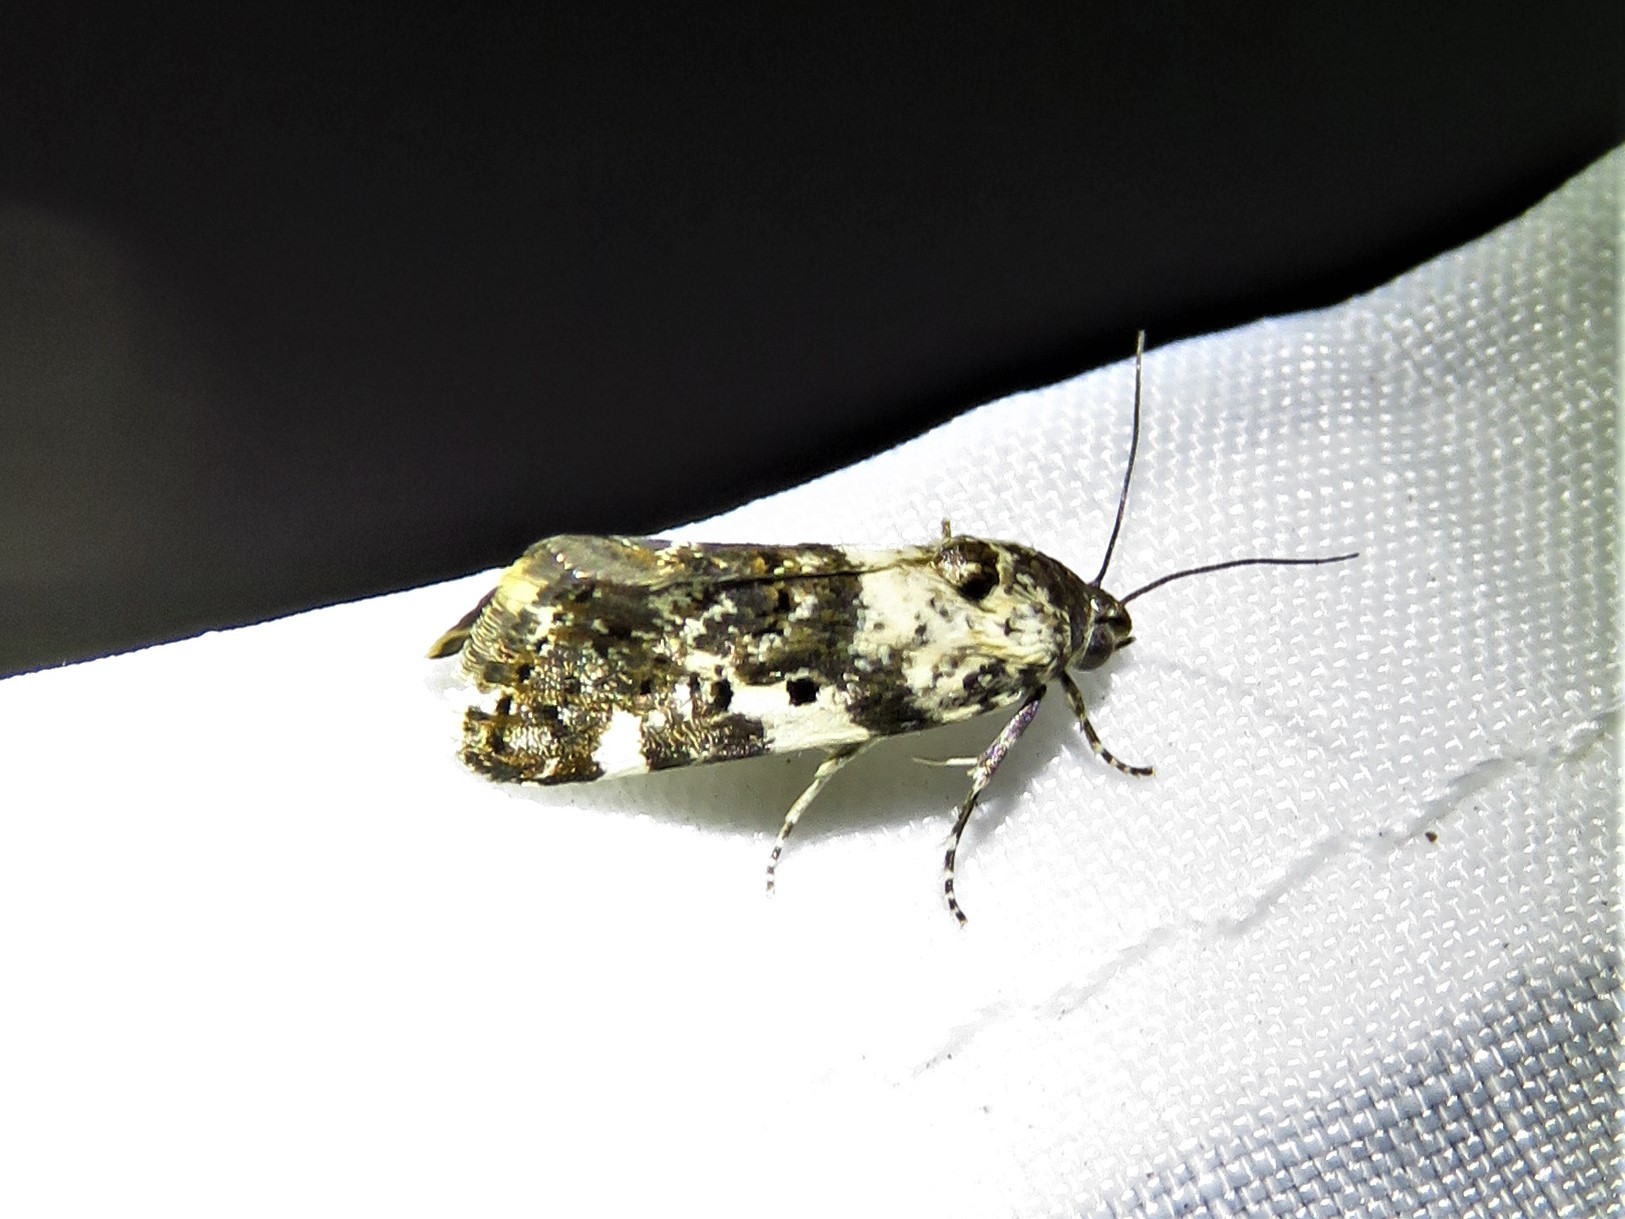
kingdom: Animalia
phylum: Arthropoda
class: Insecta
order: Lepidoptera
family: Noctuidae
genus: Acontia
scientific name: Acontia Tarache tenuicula
